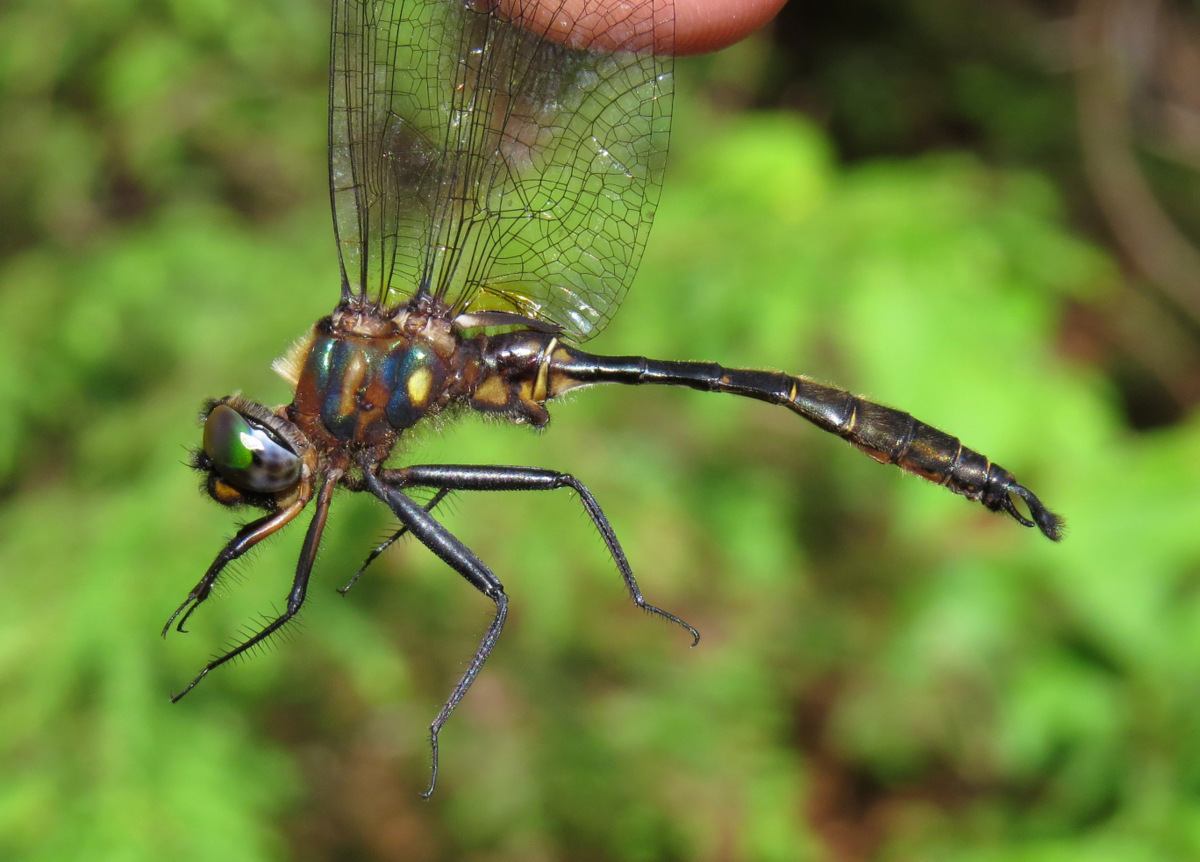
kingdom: Animalia
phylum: Arthropoda
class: Insecta
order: Odonata
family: Corduliidae
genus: Somatochlora
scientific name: Somatochlora walshii
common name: Brush-tipped emerald
